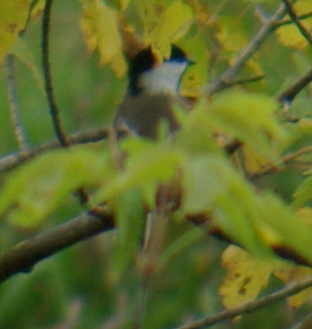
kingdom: Animalia
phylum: Chordata
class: Aves
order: Passeriformes
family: Paridae
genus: Poecile
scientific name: Poecile atricapillus
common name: Black-capped chickadee
